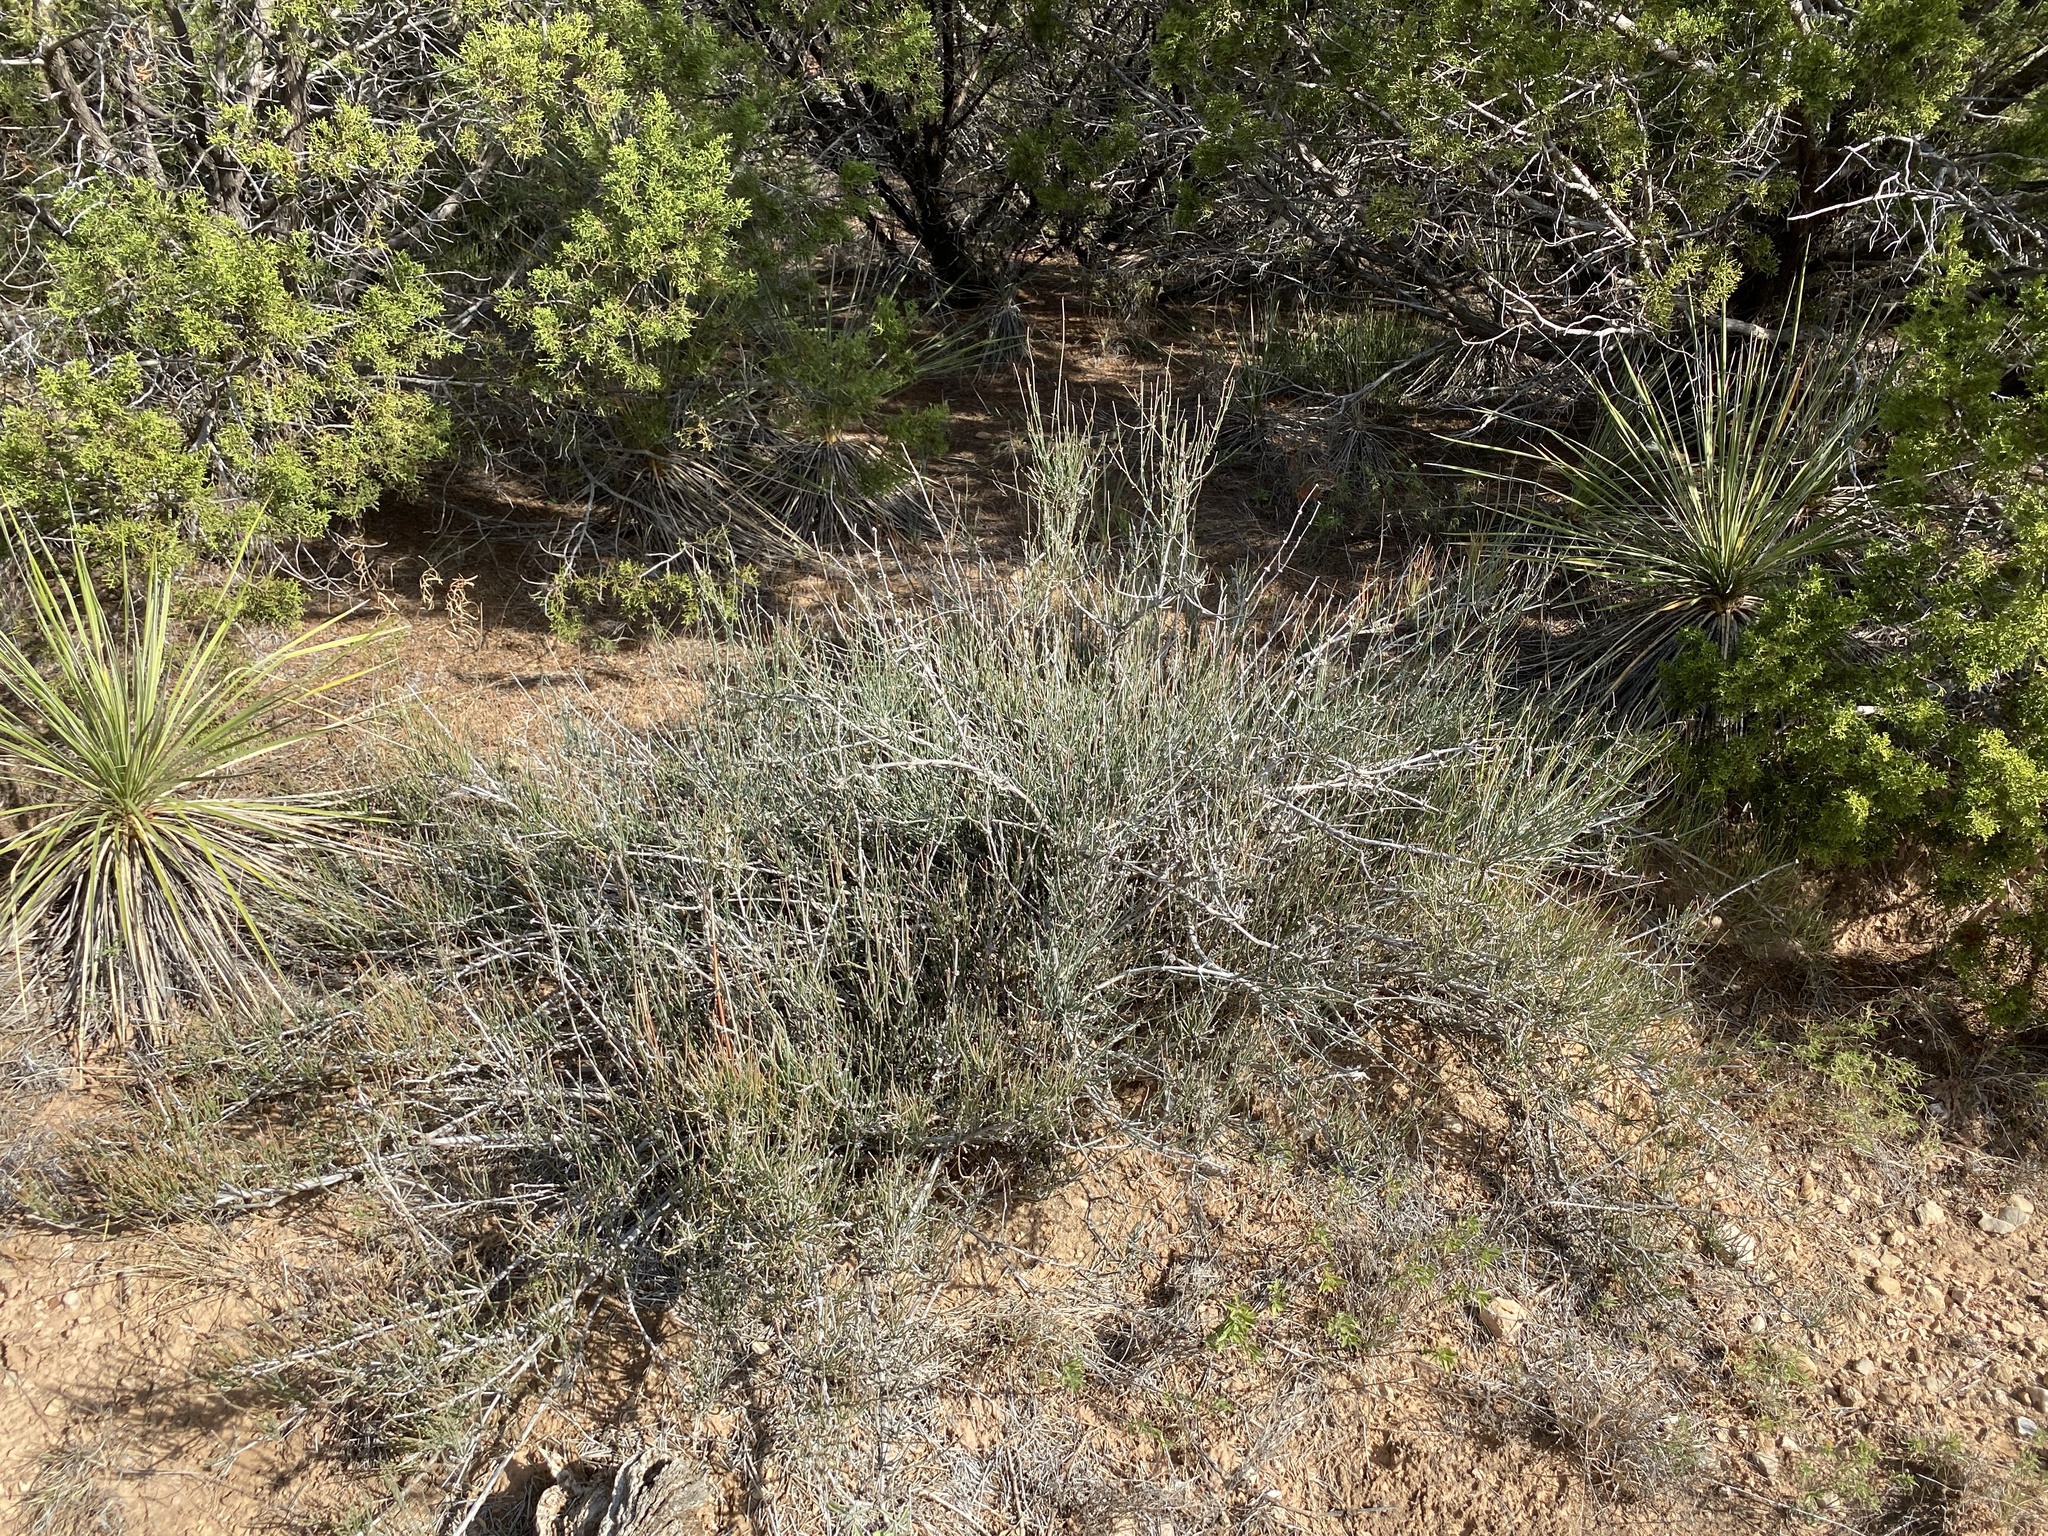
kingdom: Plantae
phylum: Tracheophyta
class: Gnetopsida
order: Ephedrales
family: Ephedraceae
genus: Ephedra
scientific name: Ephedra antisyphilitica
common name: Clipweed
